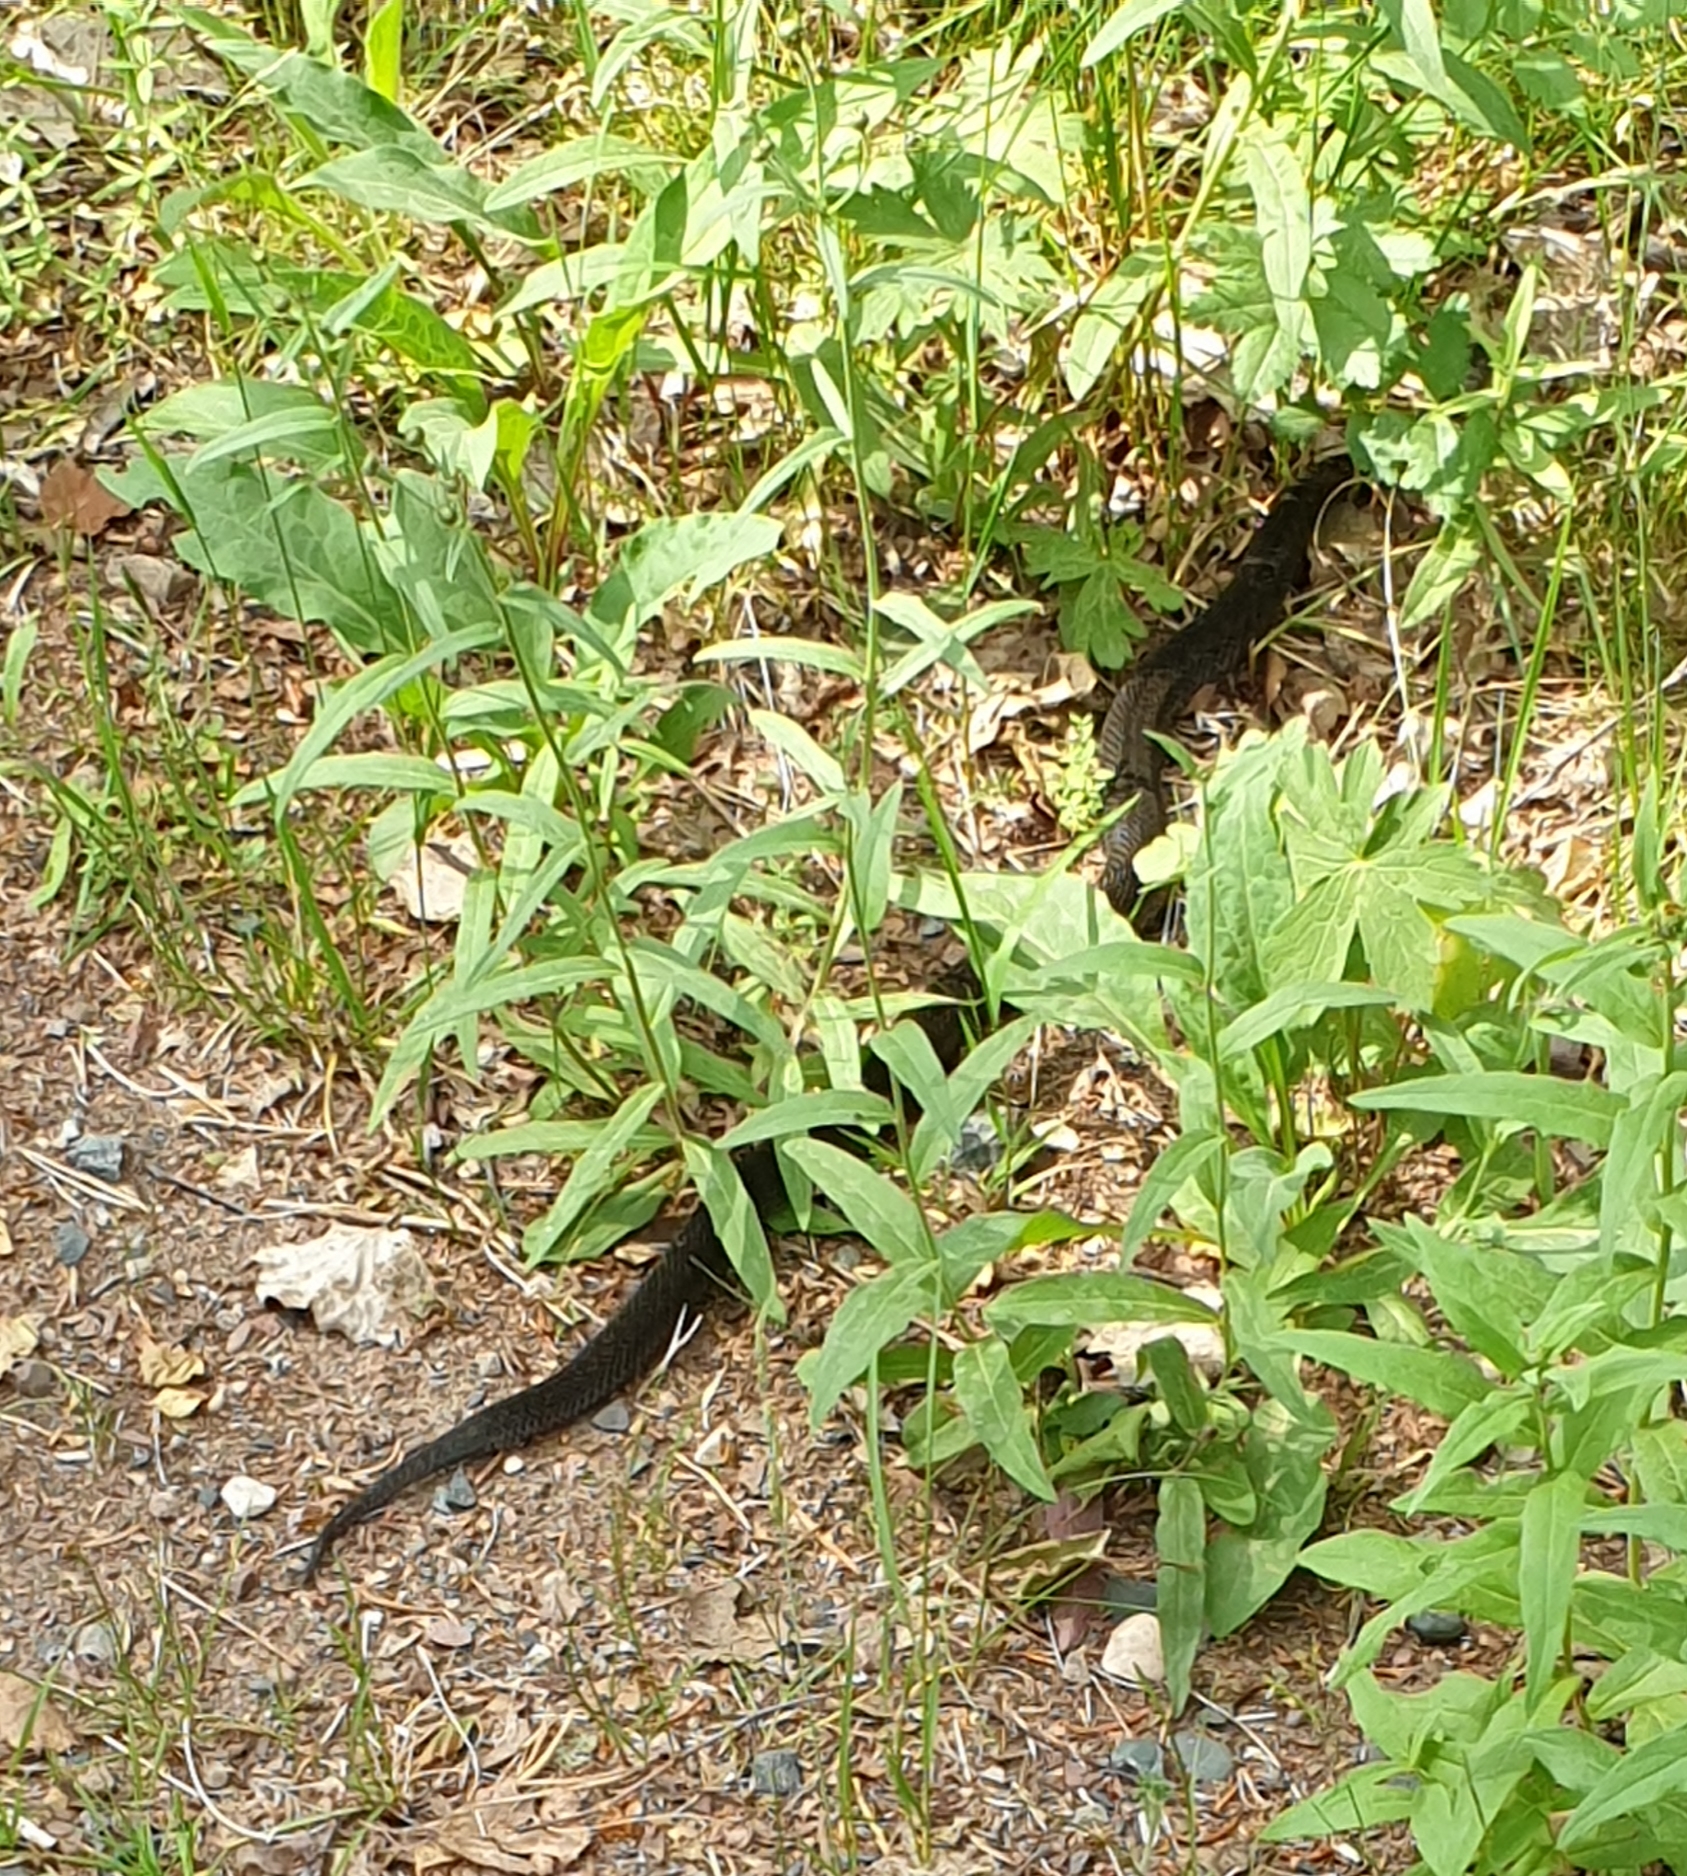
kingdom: Animalia
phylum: Chordata
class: Squamata
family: Viperidae
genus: Vipera
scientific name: Vipera berus
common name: Adder
